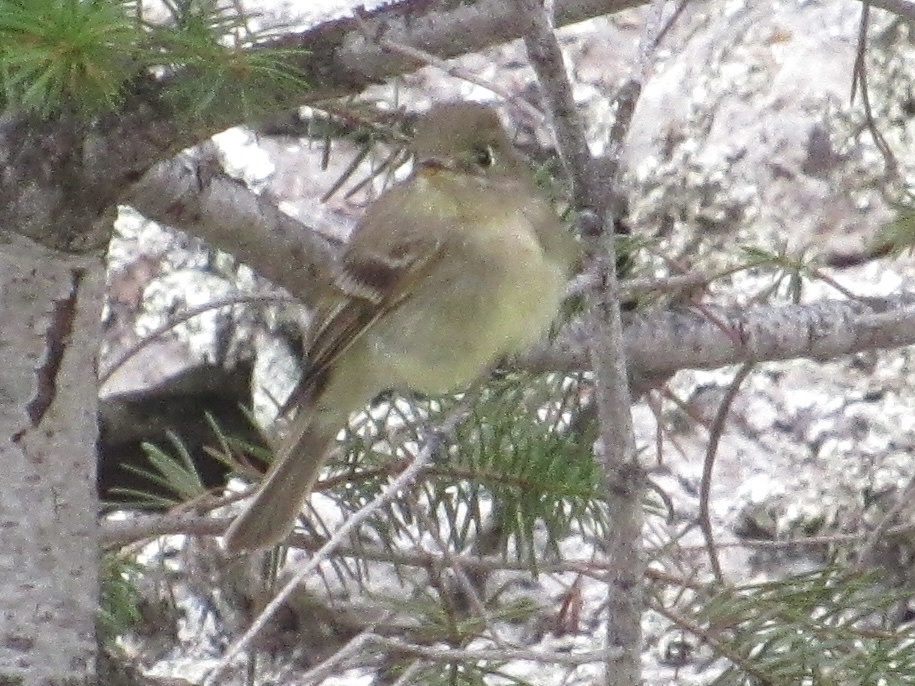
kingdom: Animalia
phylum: Chordata
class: Aves
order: Passeriformes
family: Tyrannidae
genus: Empidonax
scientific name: Empidonax difficilis
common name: Pacific-slope flycatcher
